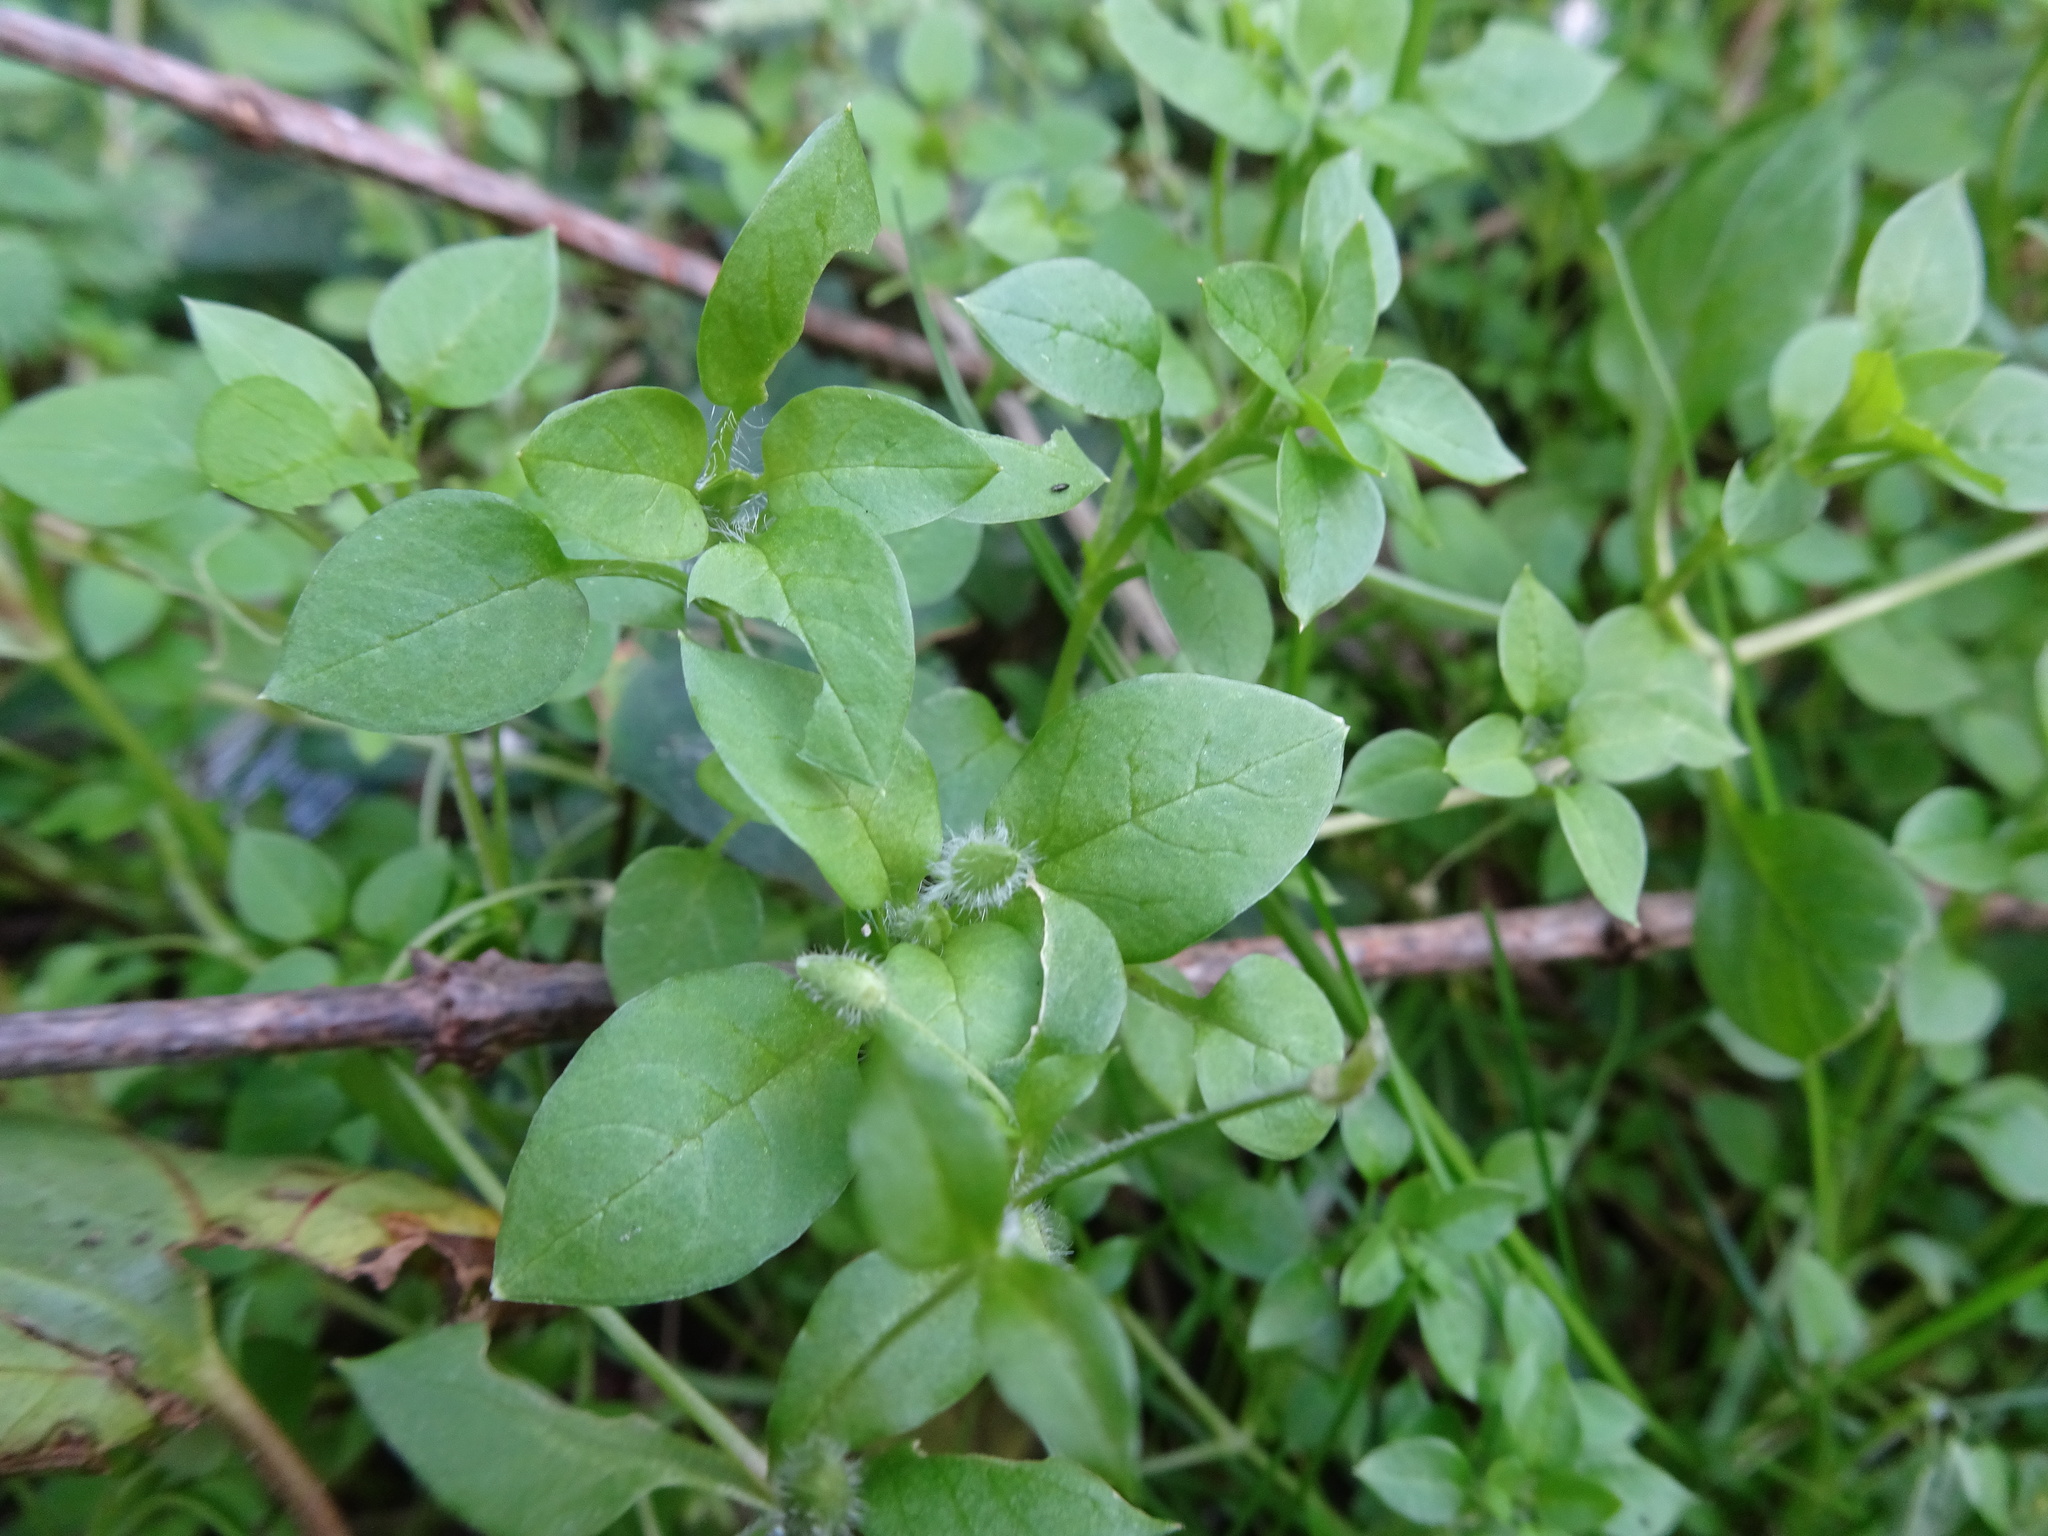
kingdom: Plantae
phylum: Tracheophyta
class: Magnoliopsida
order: Caryophyllales
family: Caryophyllaceae
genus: Stellaria
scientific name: Stellaria media
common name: Common chickweed
